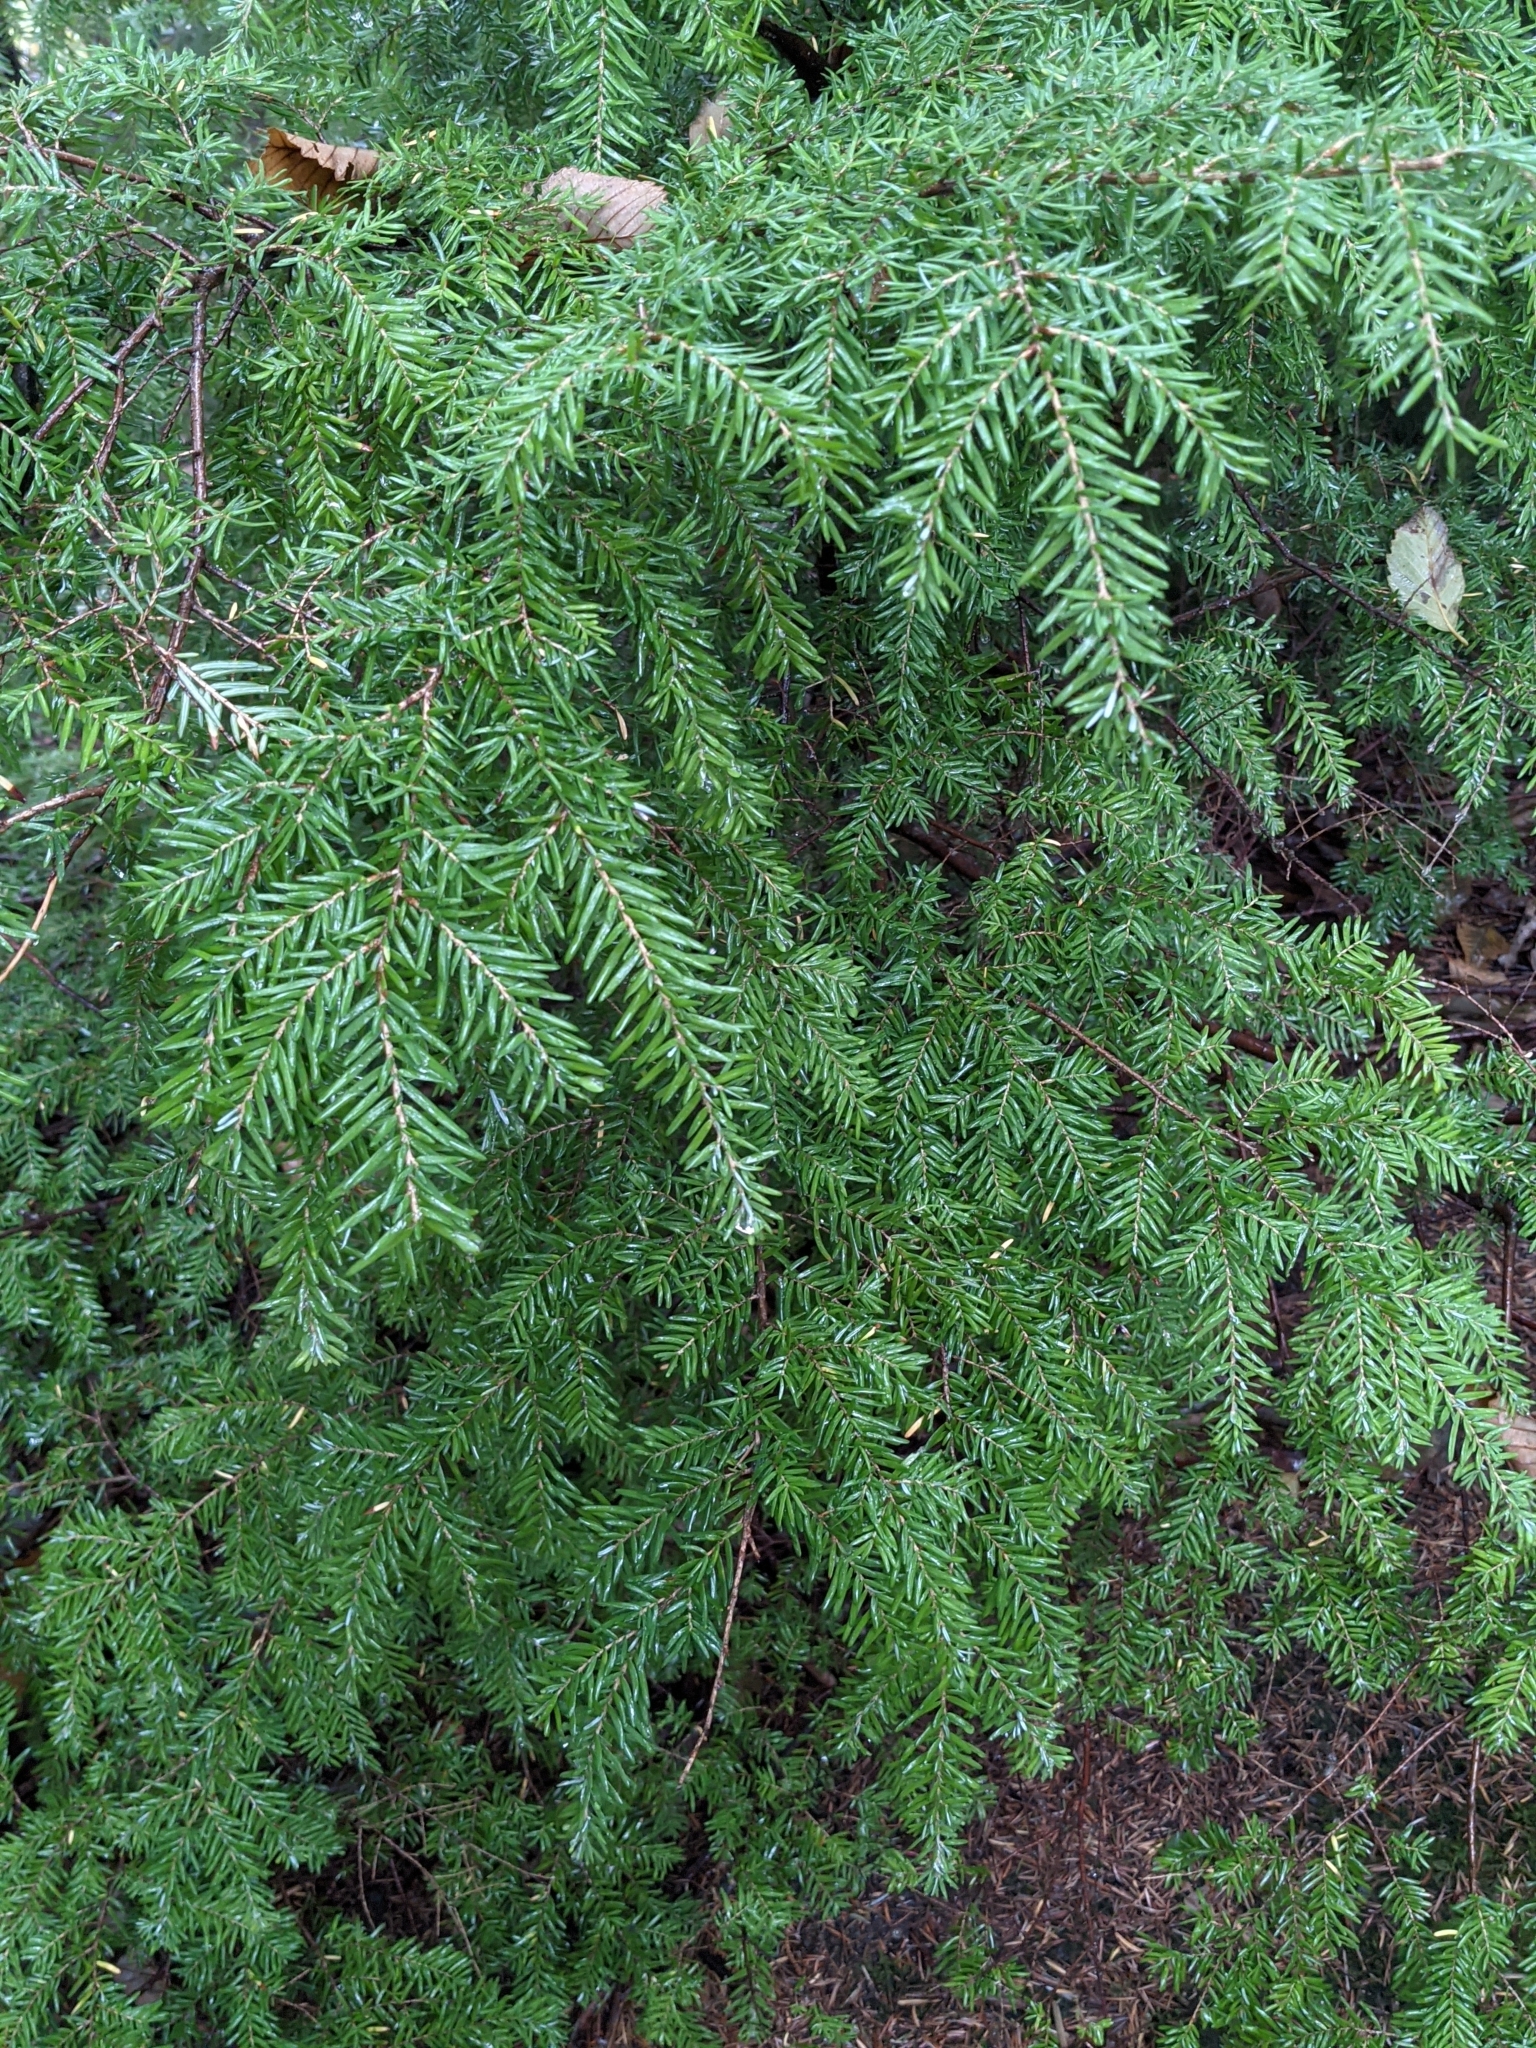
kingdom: Plantae
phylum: Tracheophyta
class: Pinopsida
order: Pinales
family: Pinaceae
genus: Tsuga
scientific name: Tsuga heterophylla
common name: Western hemlock
